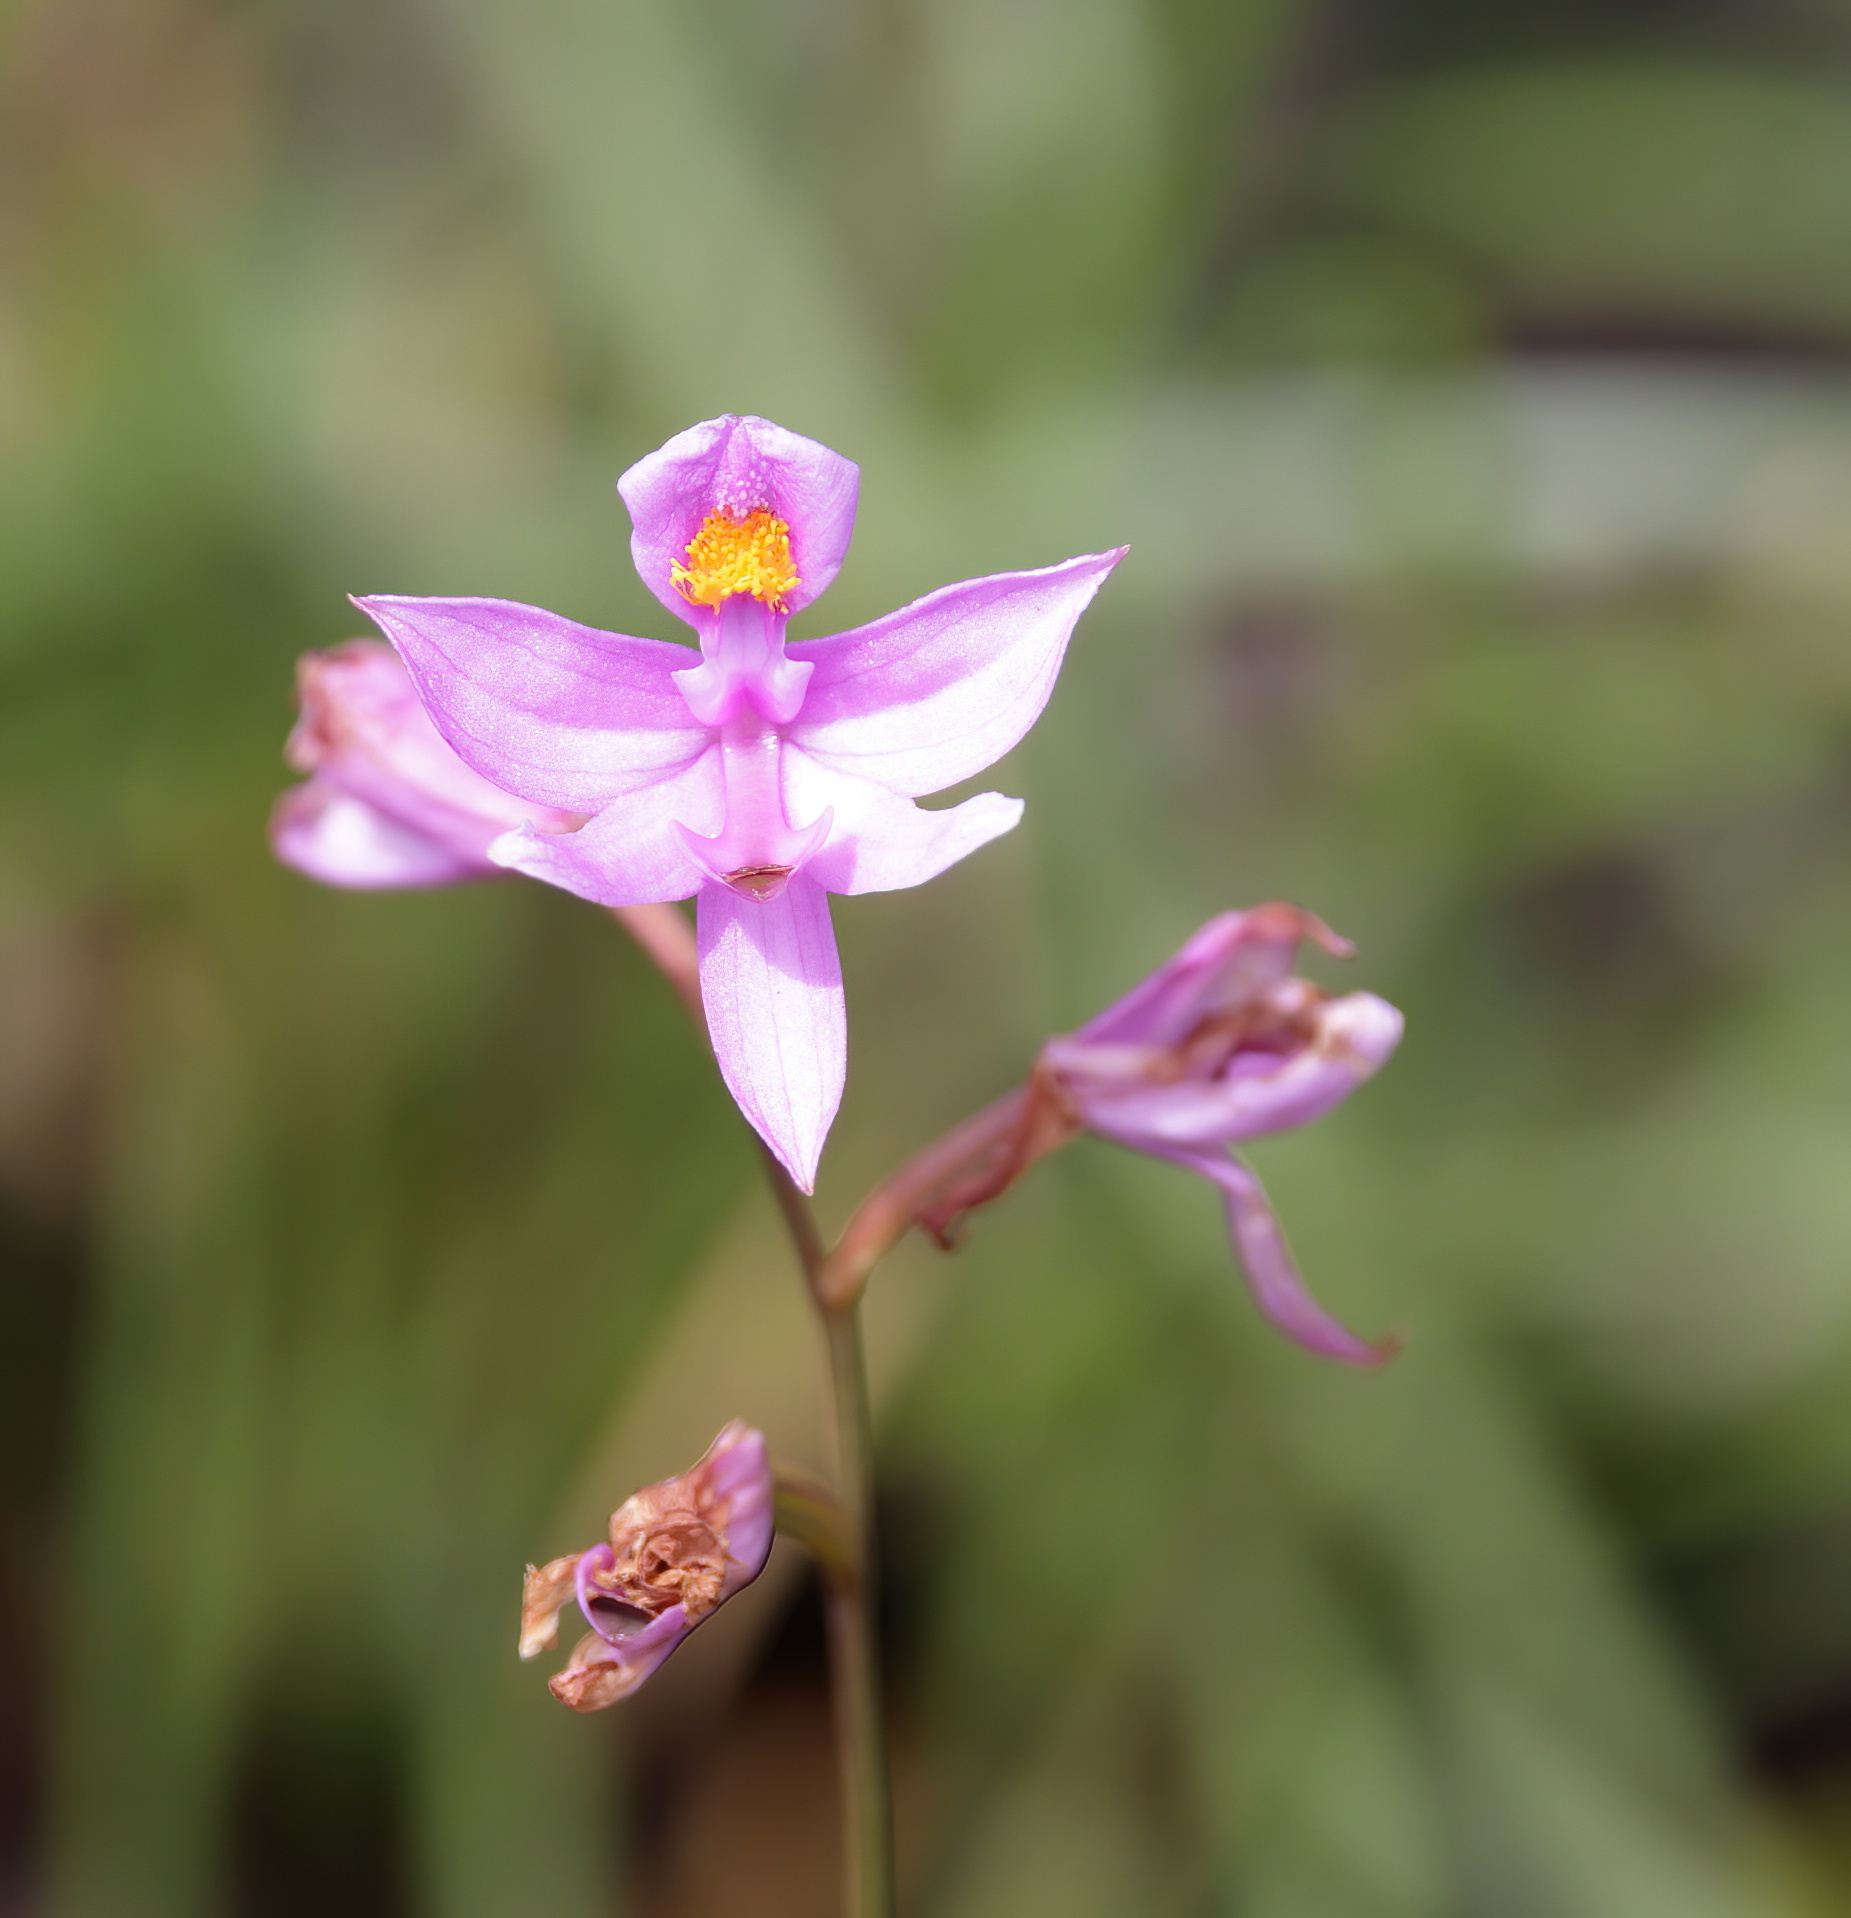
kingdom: Plantae
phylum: Tracheophyta
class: Liliopsida
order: Asparagales
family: Orchidaceae
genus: Calopogon
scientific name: Calopogon barbatus
